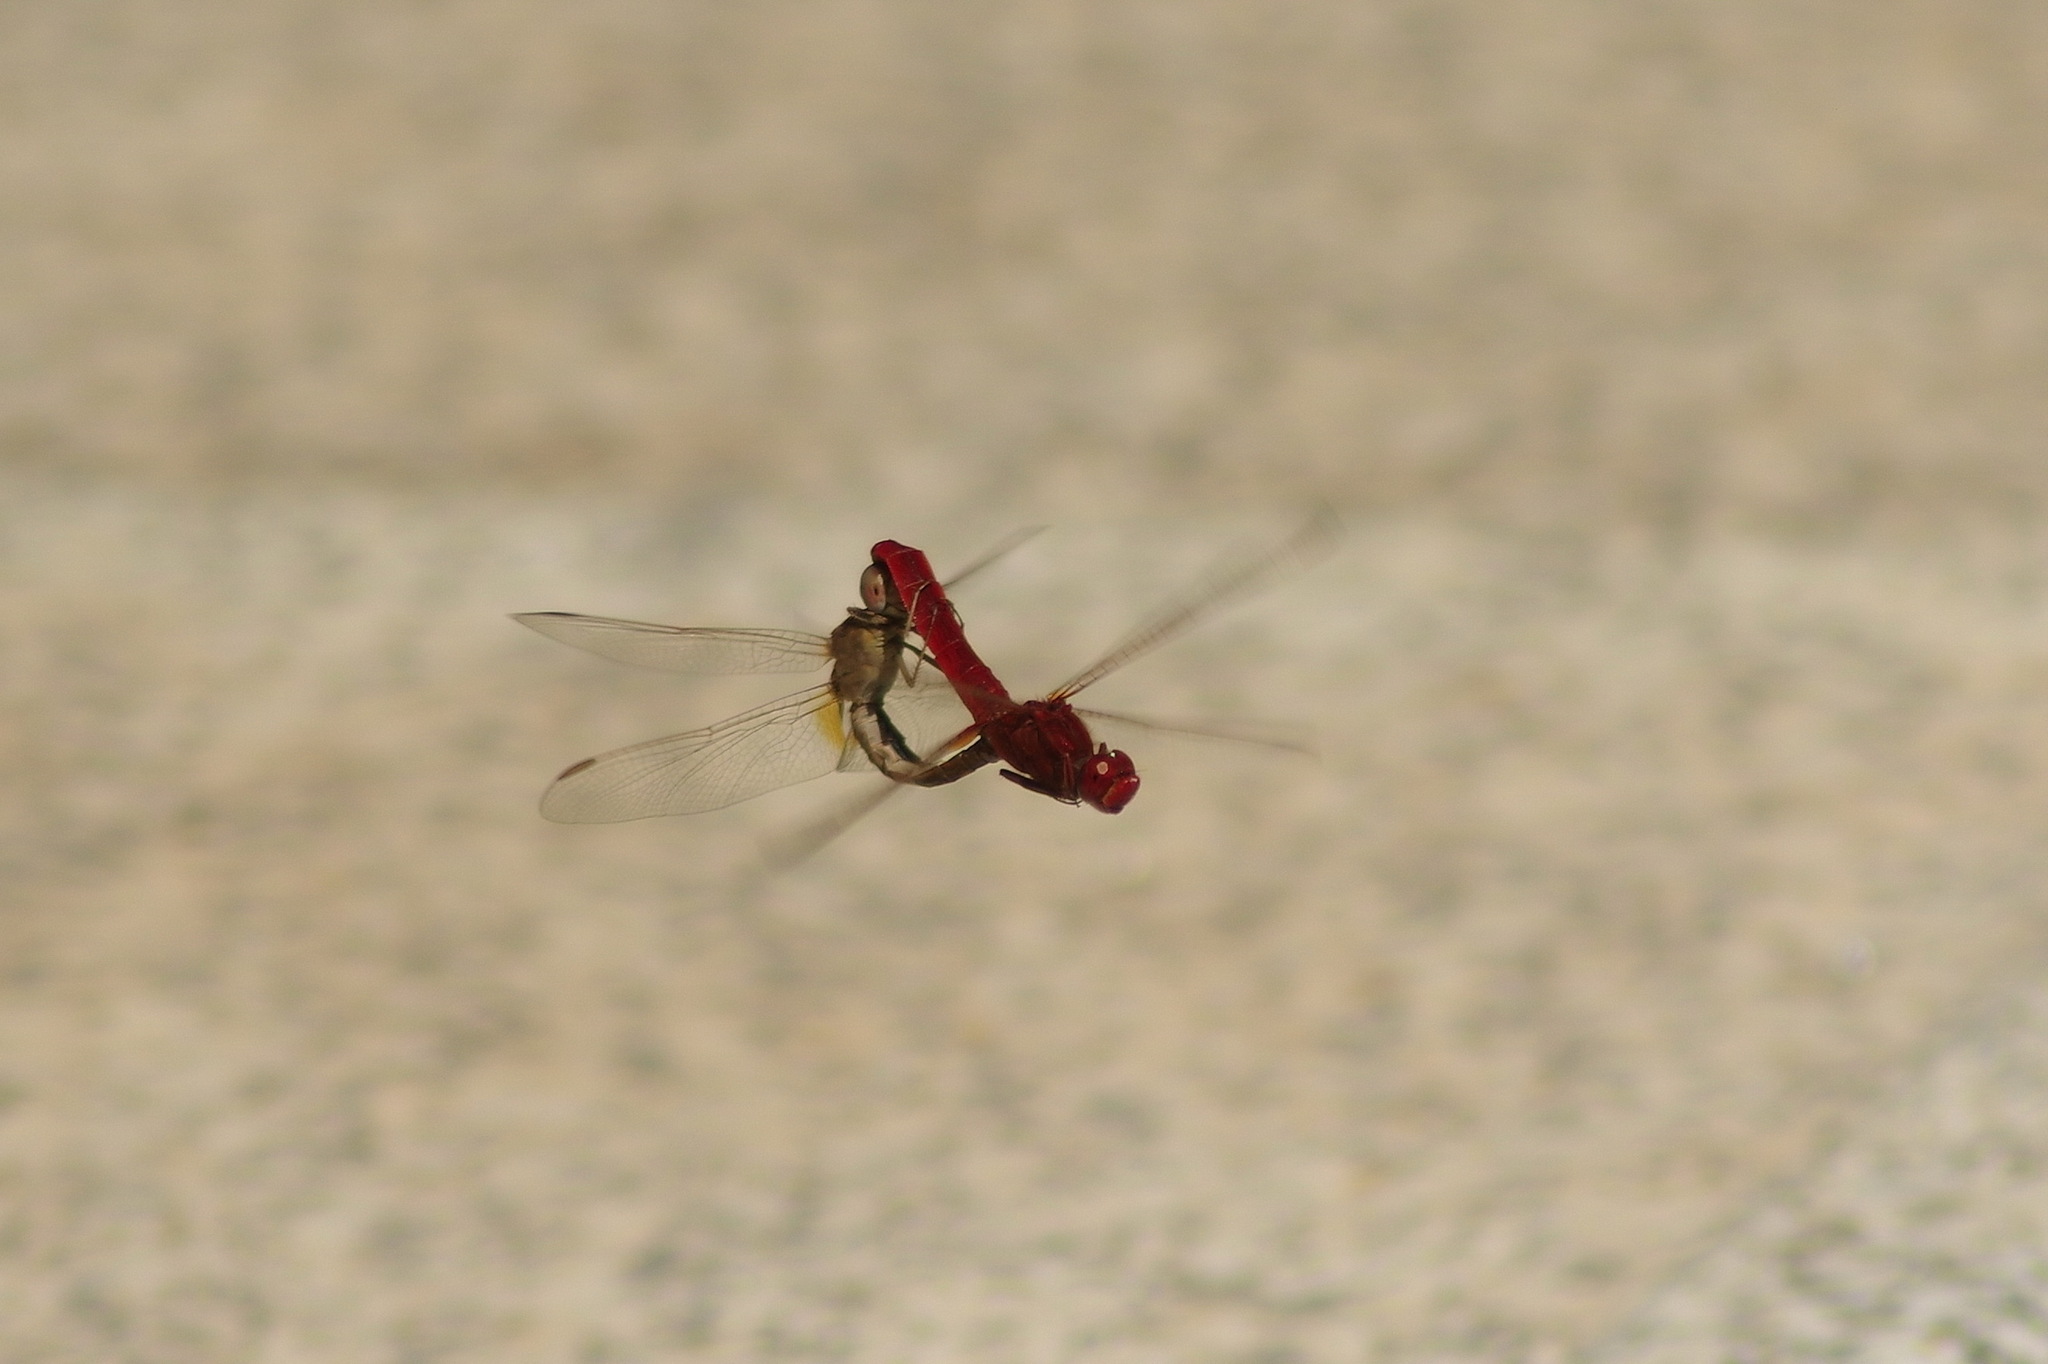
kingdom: Animalia
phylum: Arthropoda
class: Insecta
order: Odonata
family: Libellulidae
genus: Crocothemis
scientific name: Crocothemis erythraea
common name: Scarlet dragonfly
